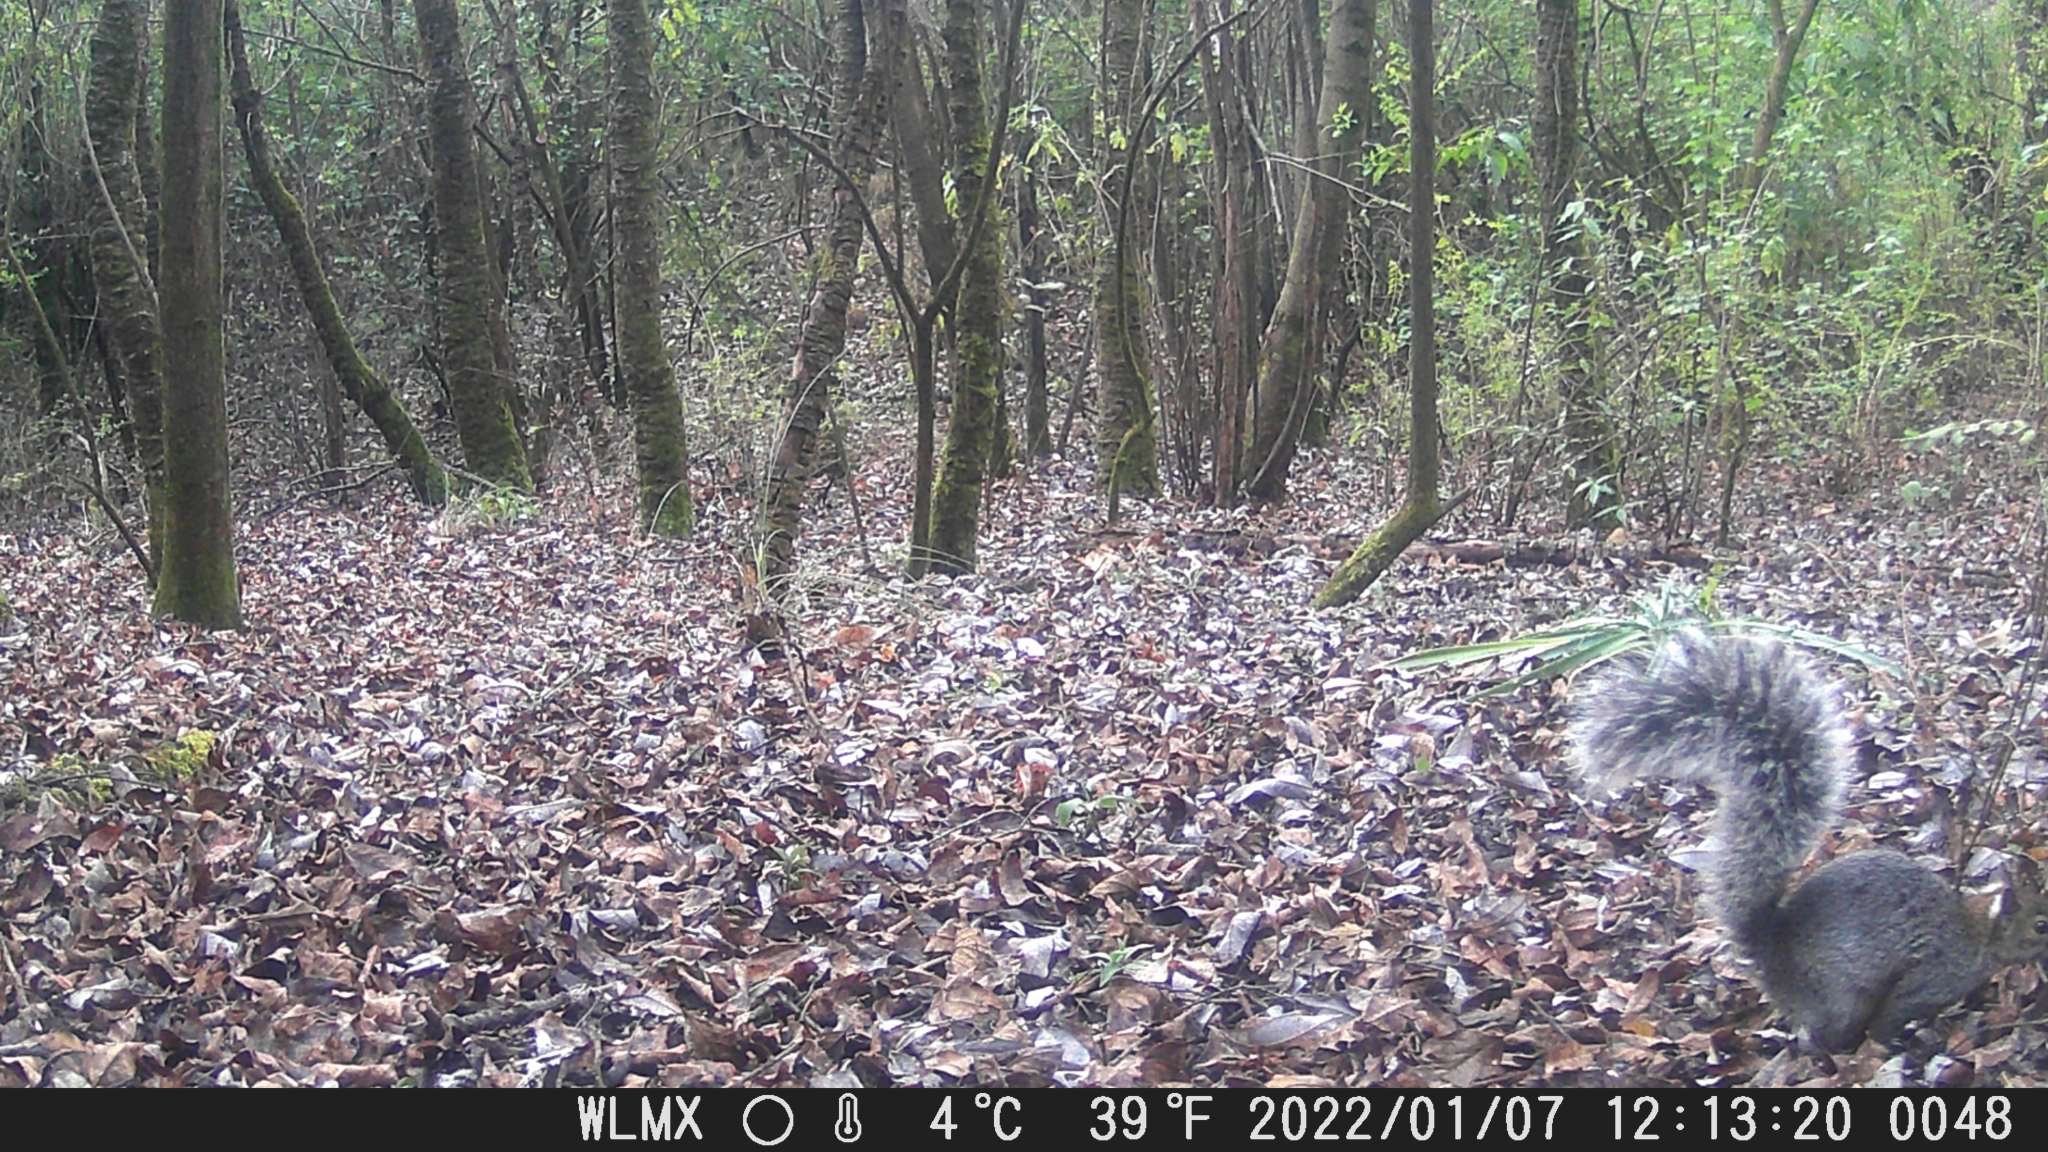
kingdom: Animalia
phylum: Chordata
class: Mammalia
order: Rodentia
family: Sciuridae
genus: Sciurus
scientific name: Sciurus aureogaster
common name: Red-bellied squirrel
